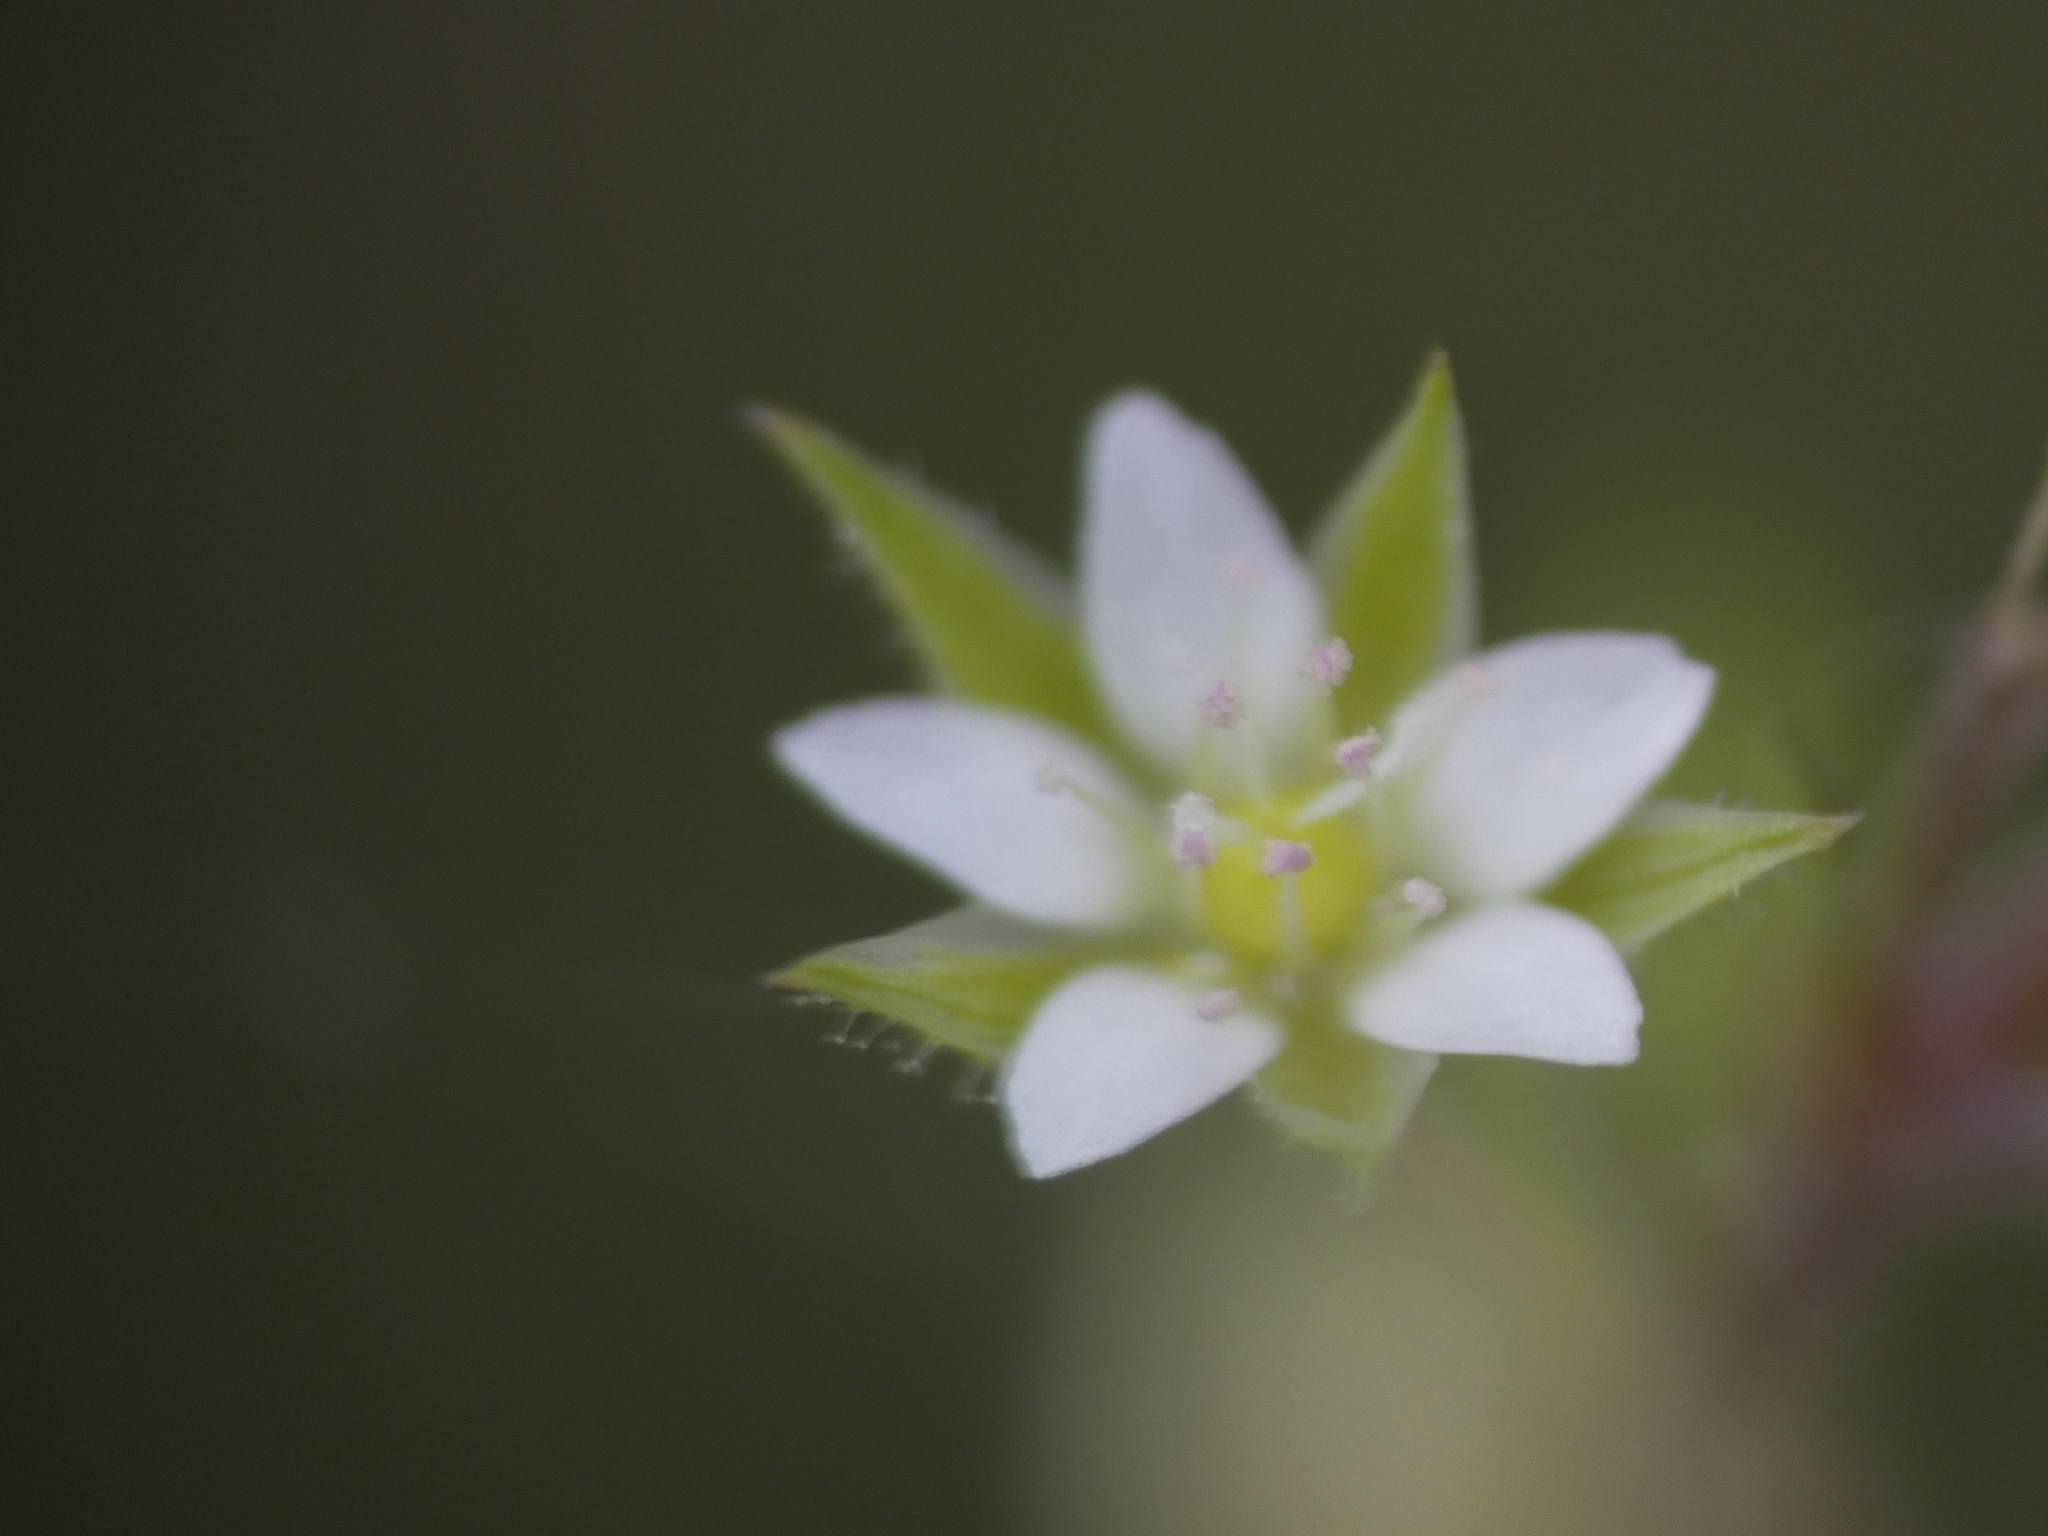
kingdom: Plantae
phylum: Tracheophyta
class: Magnoliopsida
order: Caryophyllales
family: Caryophyllaceae
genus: Arenaria
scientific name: Arenaria serpyllifolia
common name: Thyme-leaved sandwort
